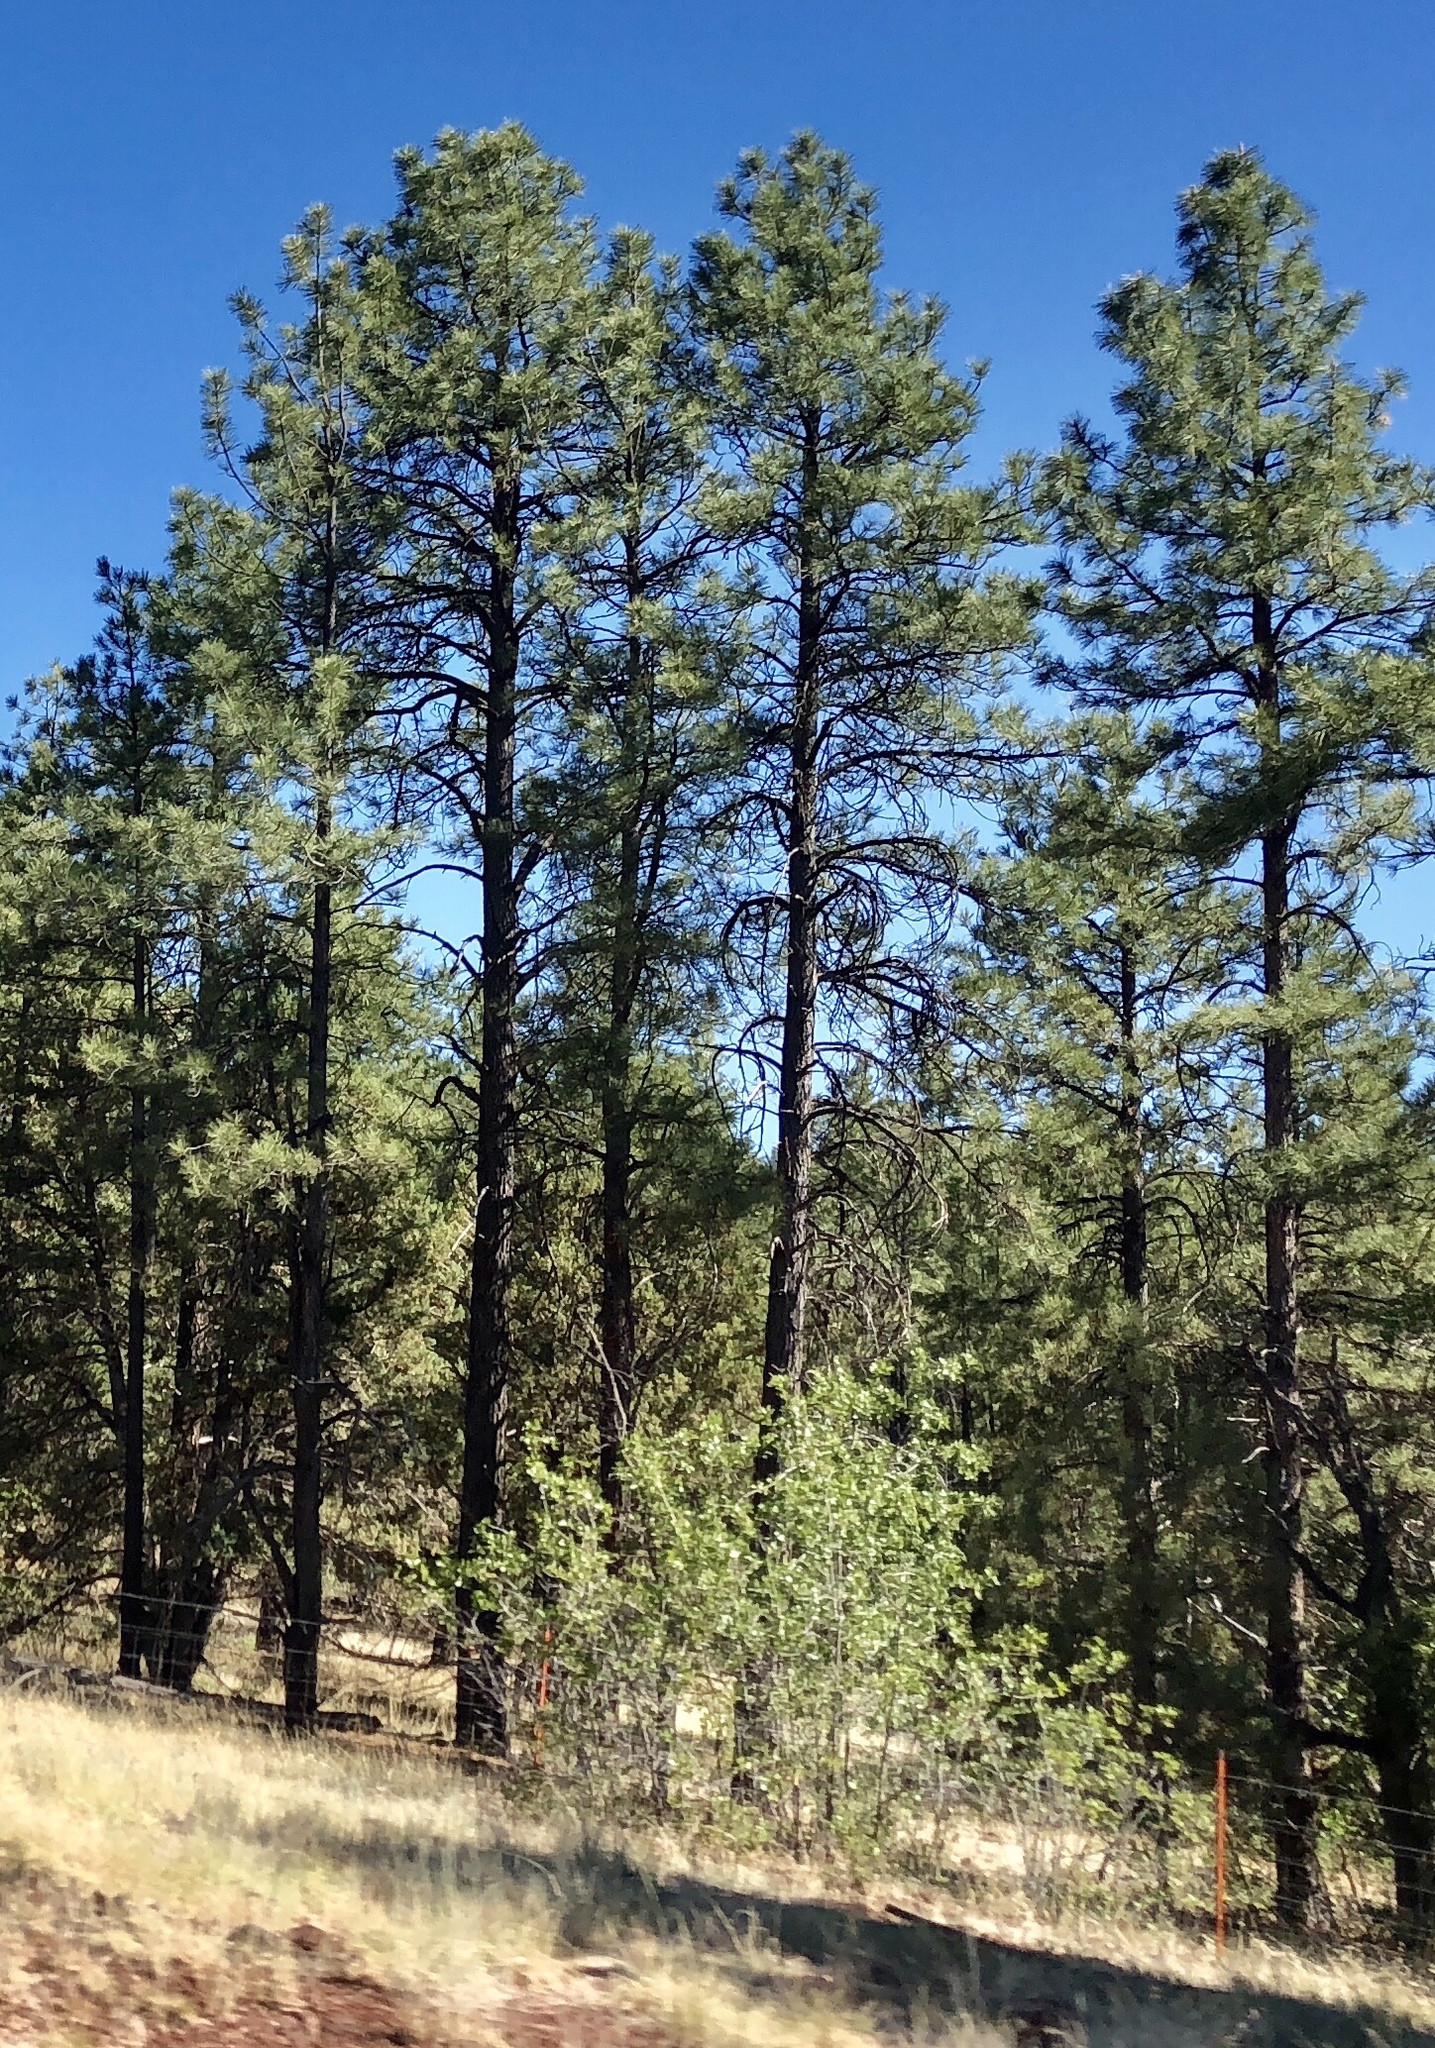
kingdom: Plantae
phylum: Tracheophyta
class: Pinopsida
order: Pinales
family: Pinaceae
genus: Pinus
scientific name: Pinus ponderosa
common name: Western yellow-pine
